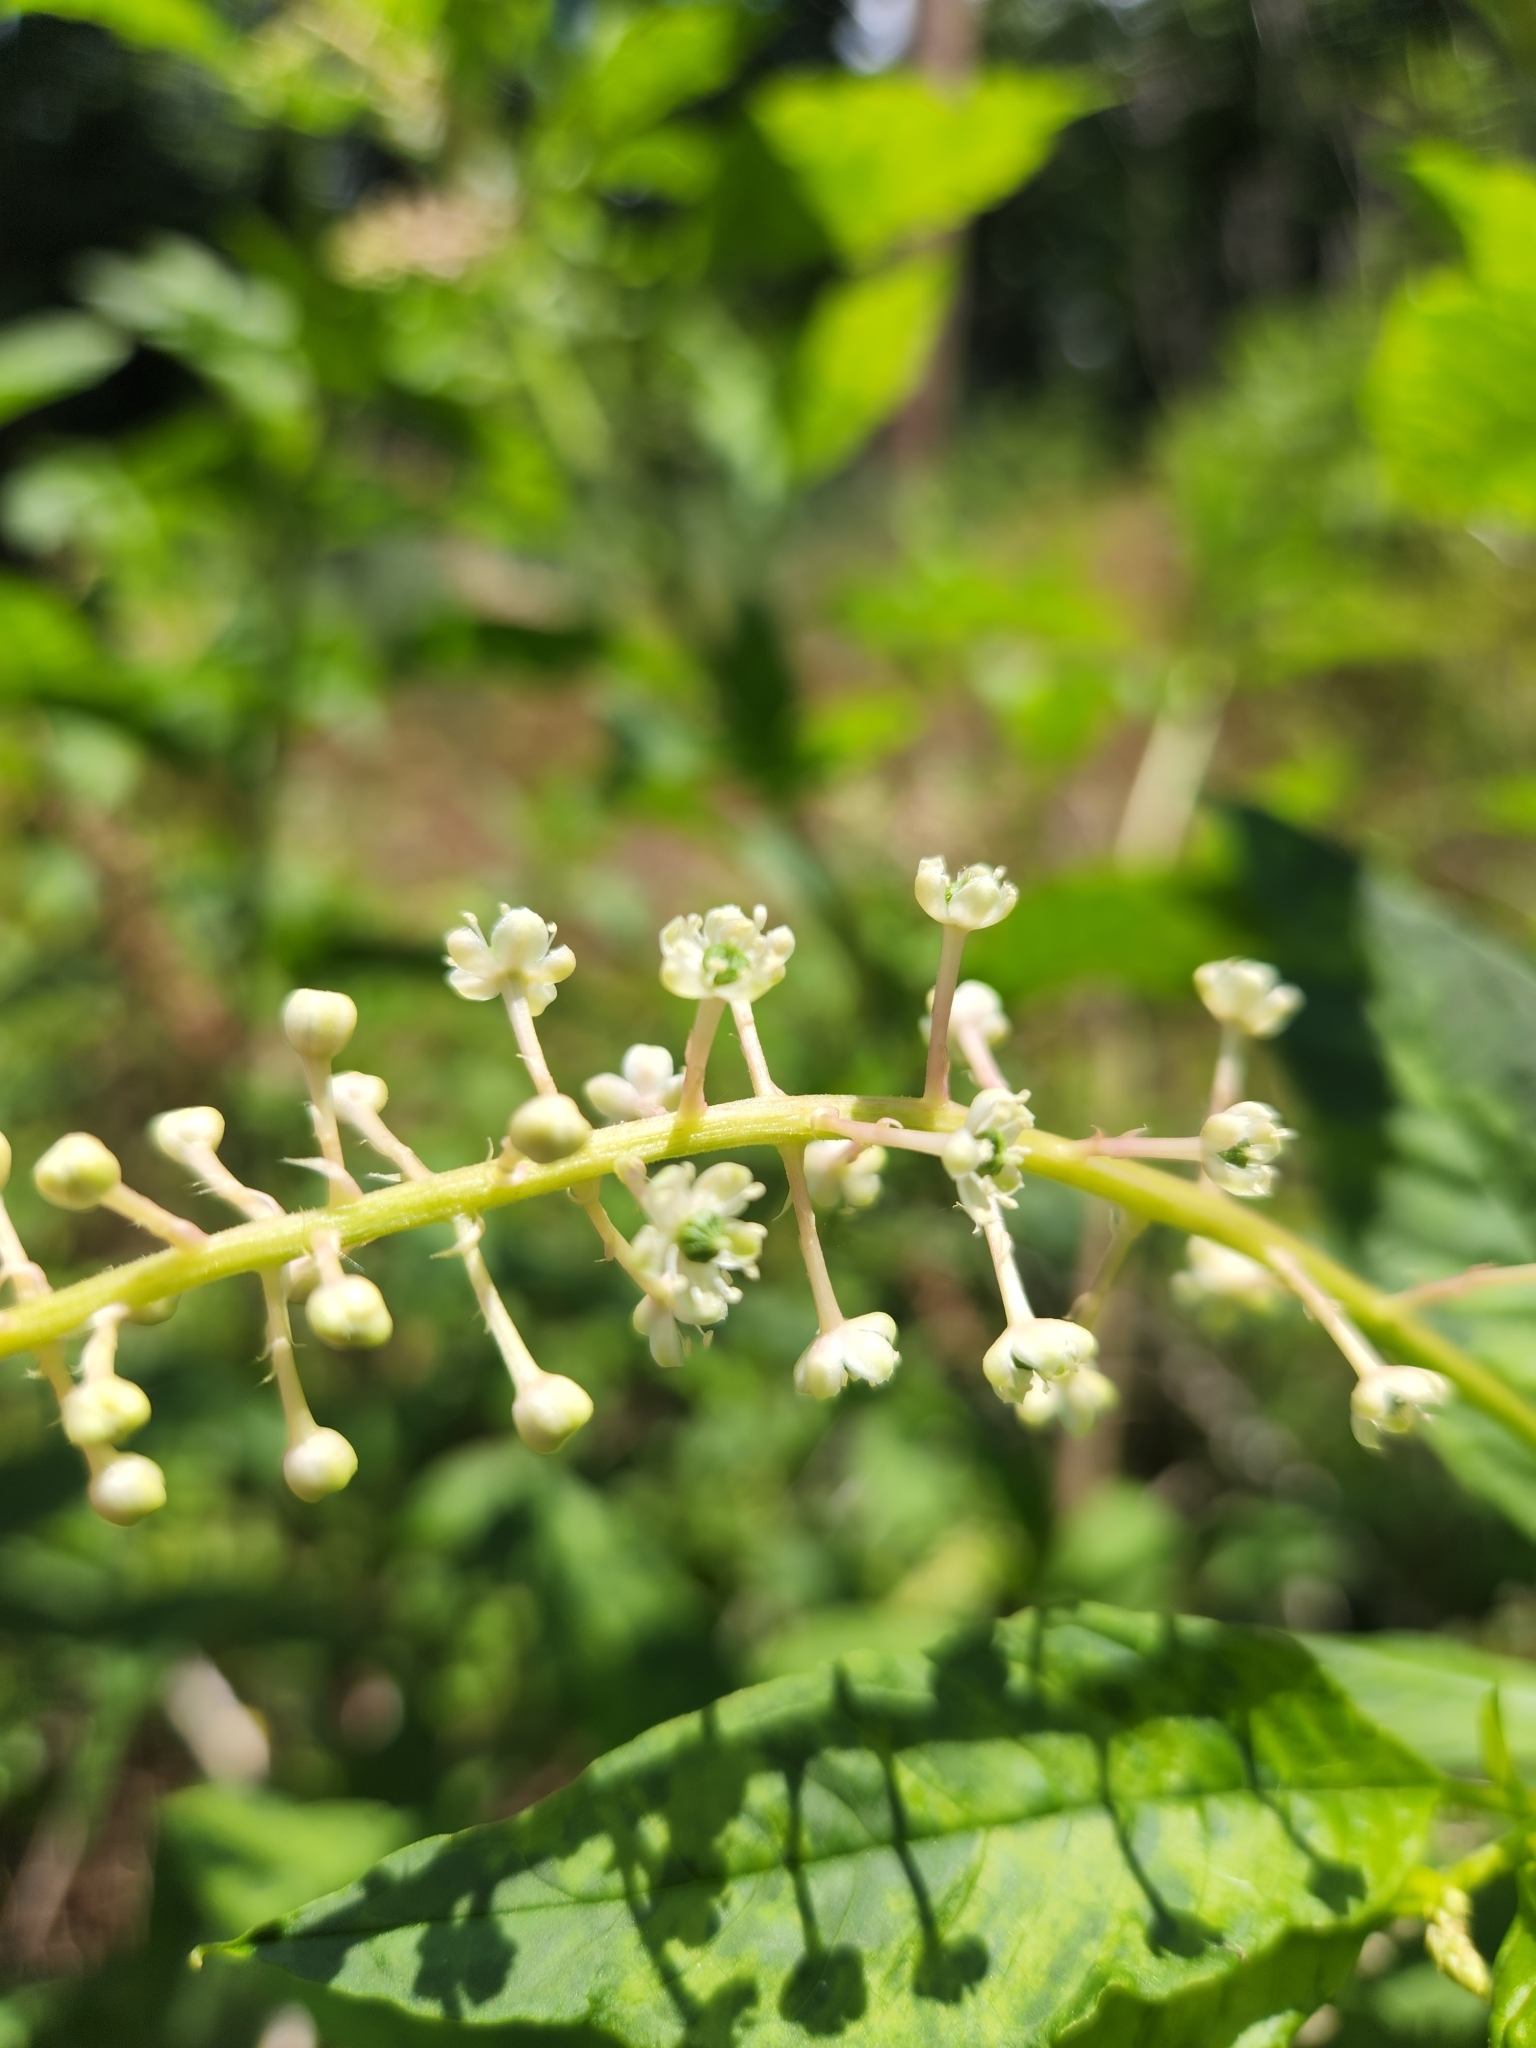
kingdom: Plantae
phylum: Tracheophyta
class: Magnoliopsida
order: Caryophyllales
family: Phytolaccaceae
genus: Phytolacca
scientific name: Phytolacca americana
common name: American pokeweed
